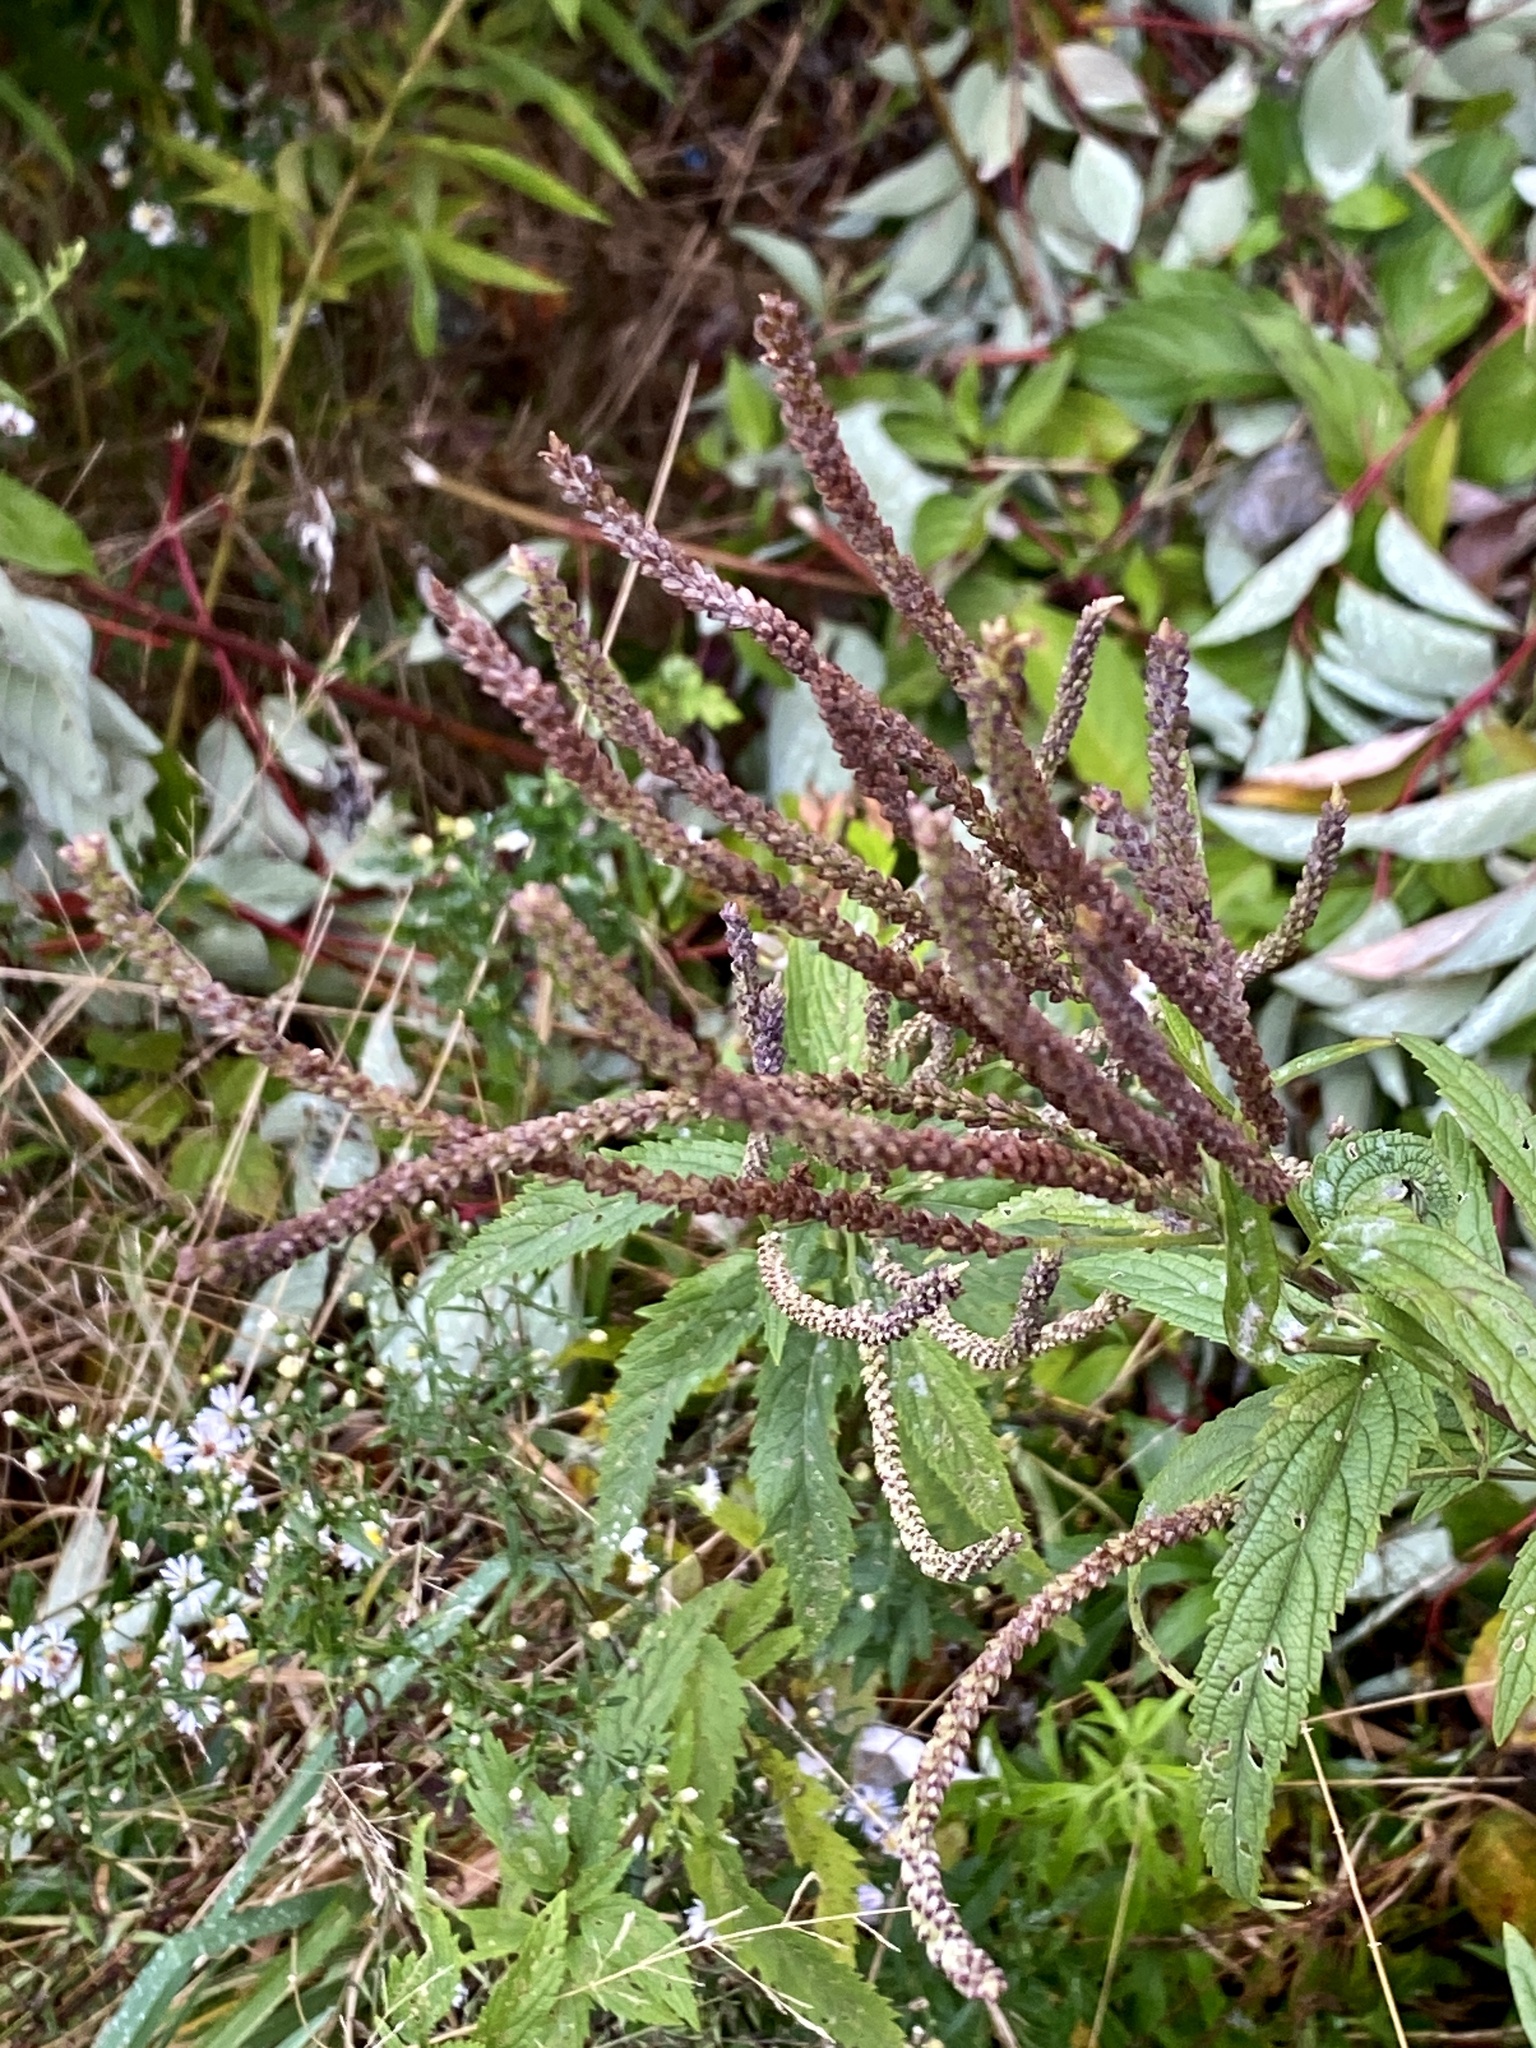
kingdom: Plantae
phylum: Tracheophyta
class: Magnoliopsida
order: Lamiales
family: Verbenaceae
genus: Verbena
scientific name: Verbena hastata
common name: American blue vervain
